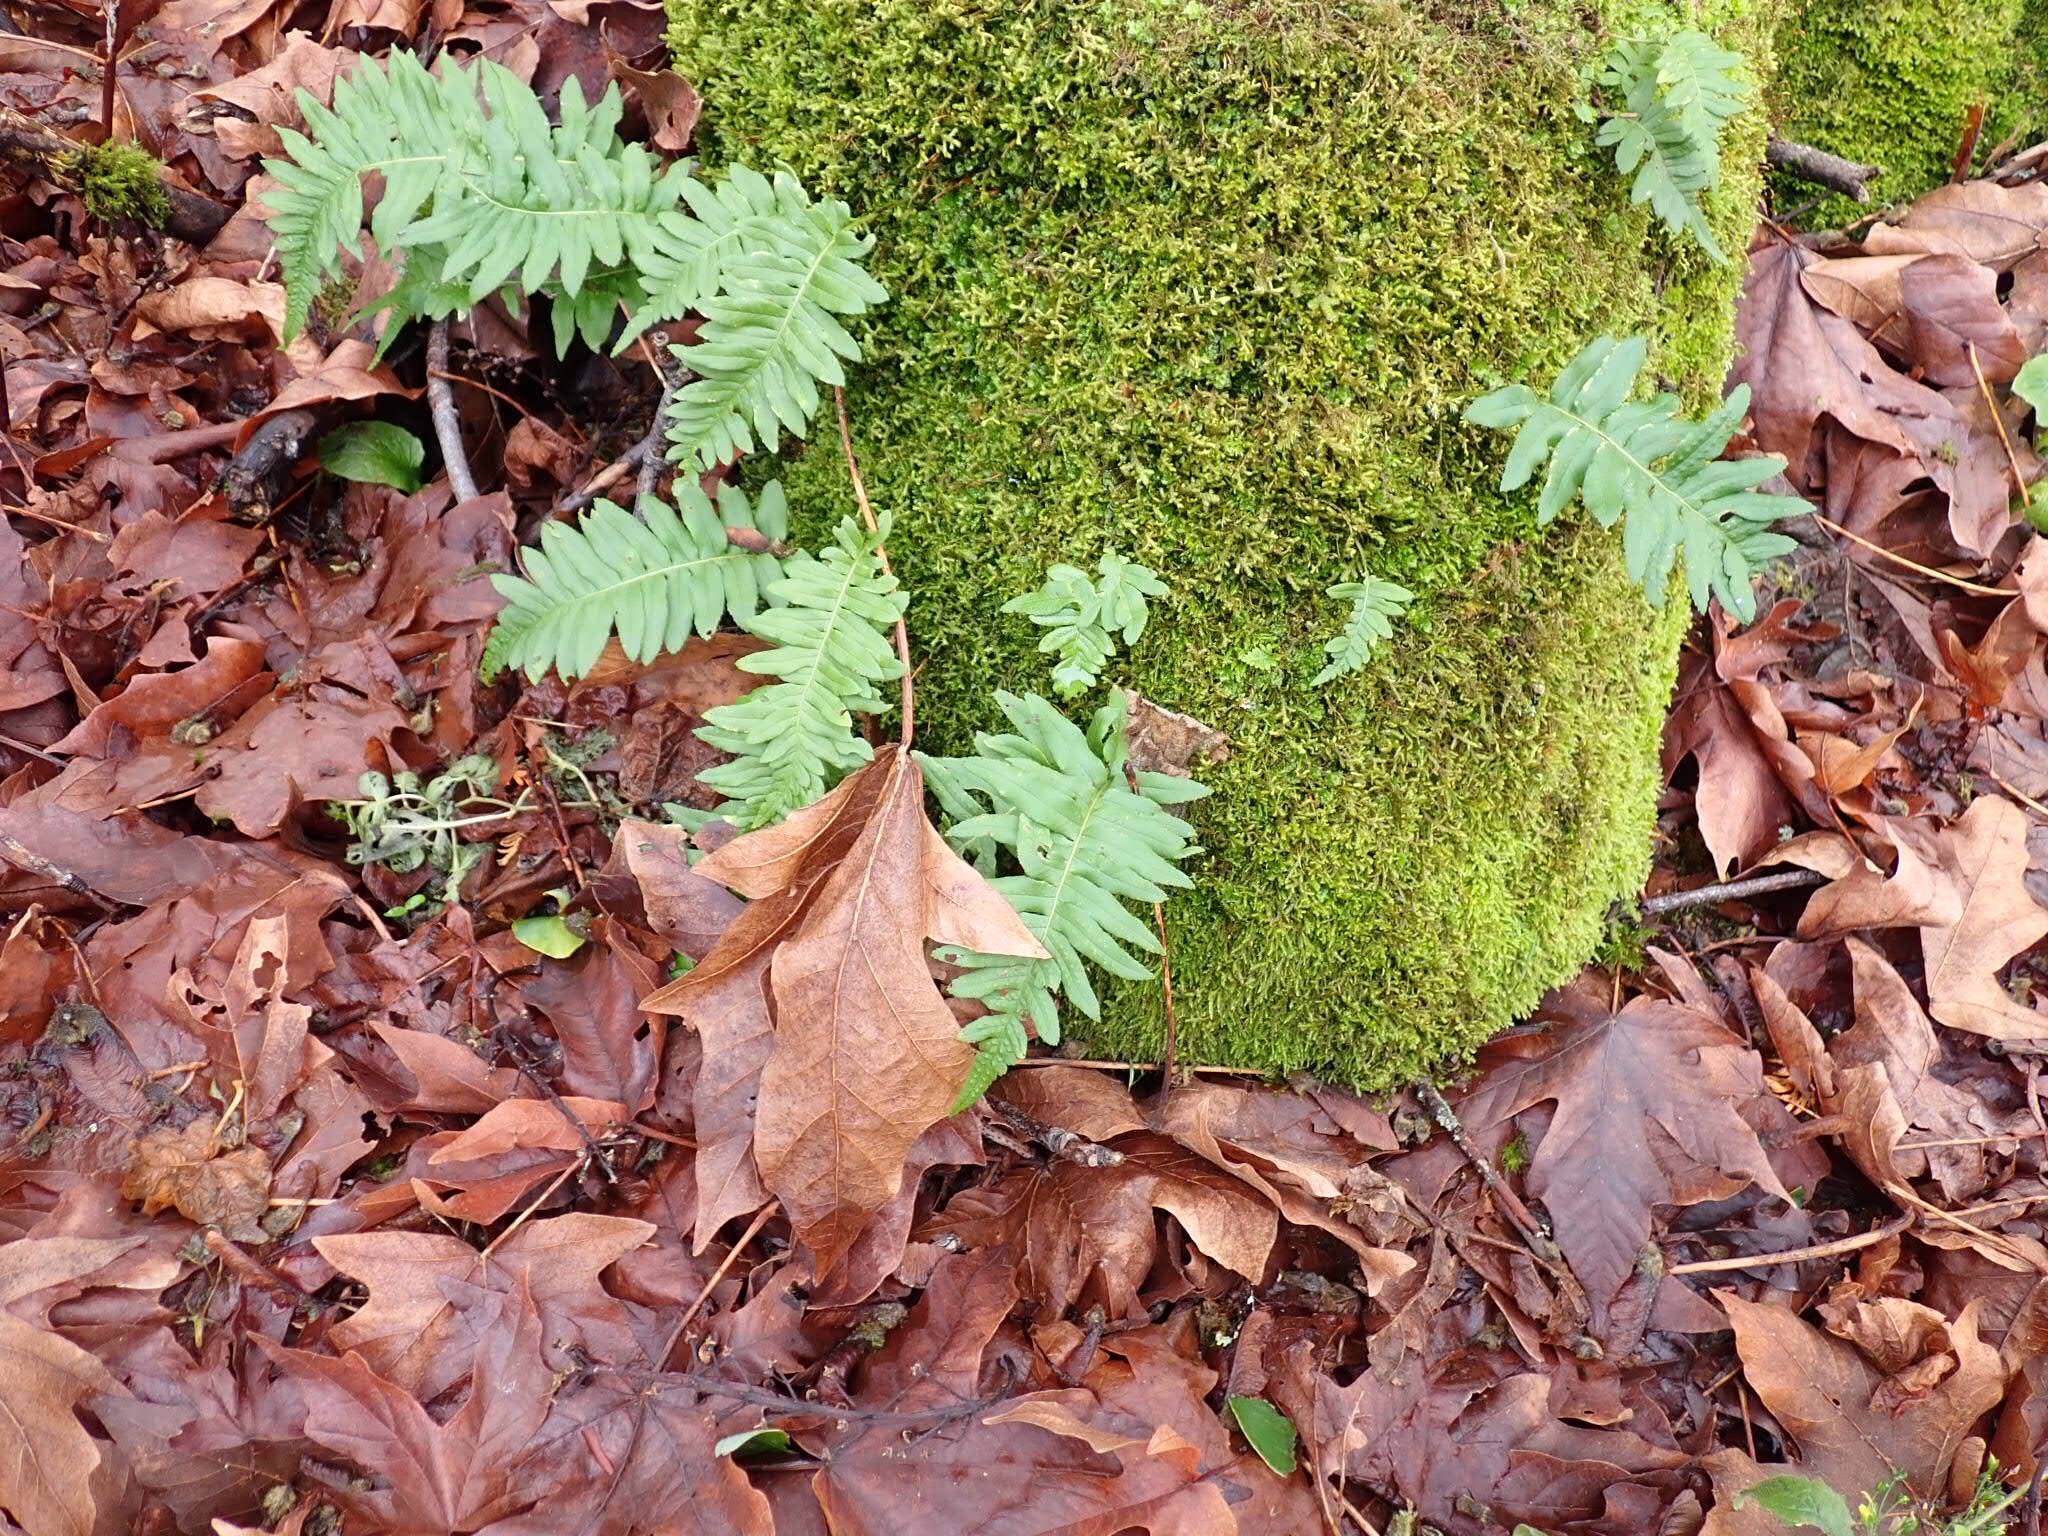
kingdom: Plantae
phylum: Tracheophyta
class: Polypodiopsida
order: Polypodiales
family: Polypodiaceae
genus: Polypodium
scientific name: Polypodium glycyrrhiza
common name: Licorice fern
